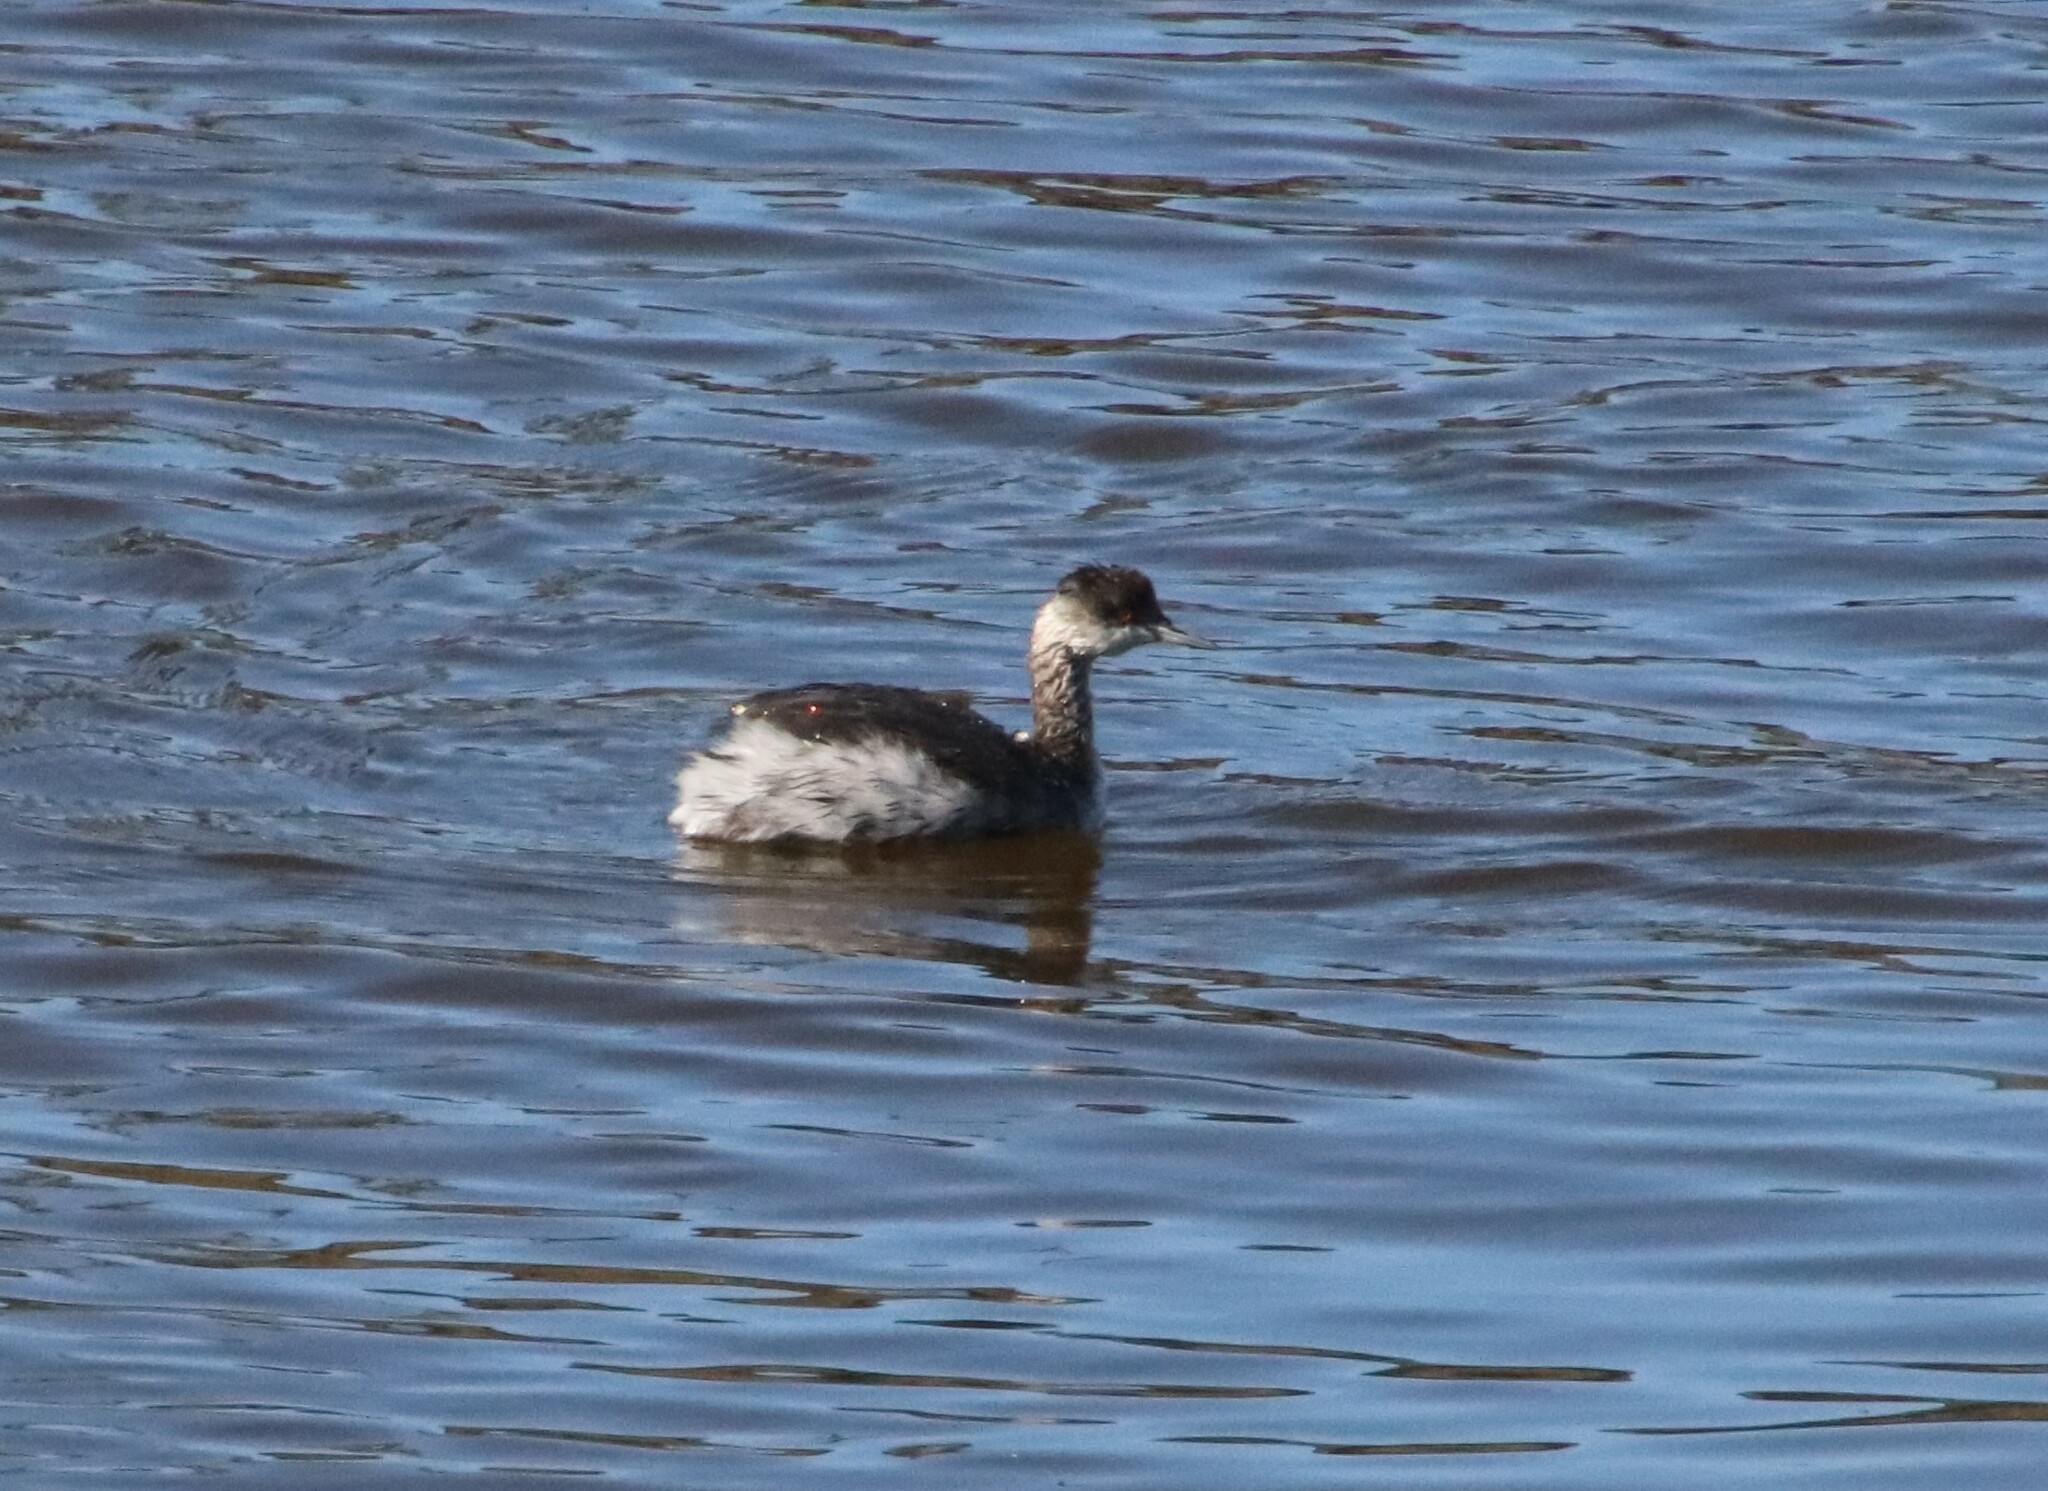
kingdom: Animalia
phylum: Chordata
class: Aves
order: Podicipediformes
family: Podicipedidae
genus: Podiceps
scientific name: Podiceps nigricollis
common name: Black-necked grebe
